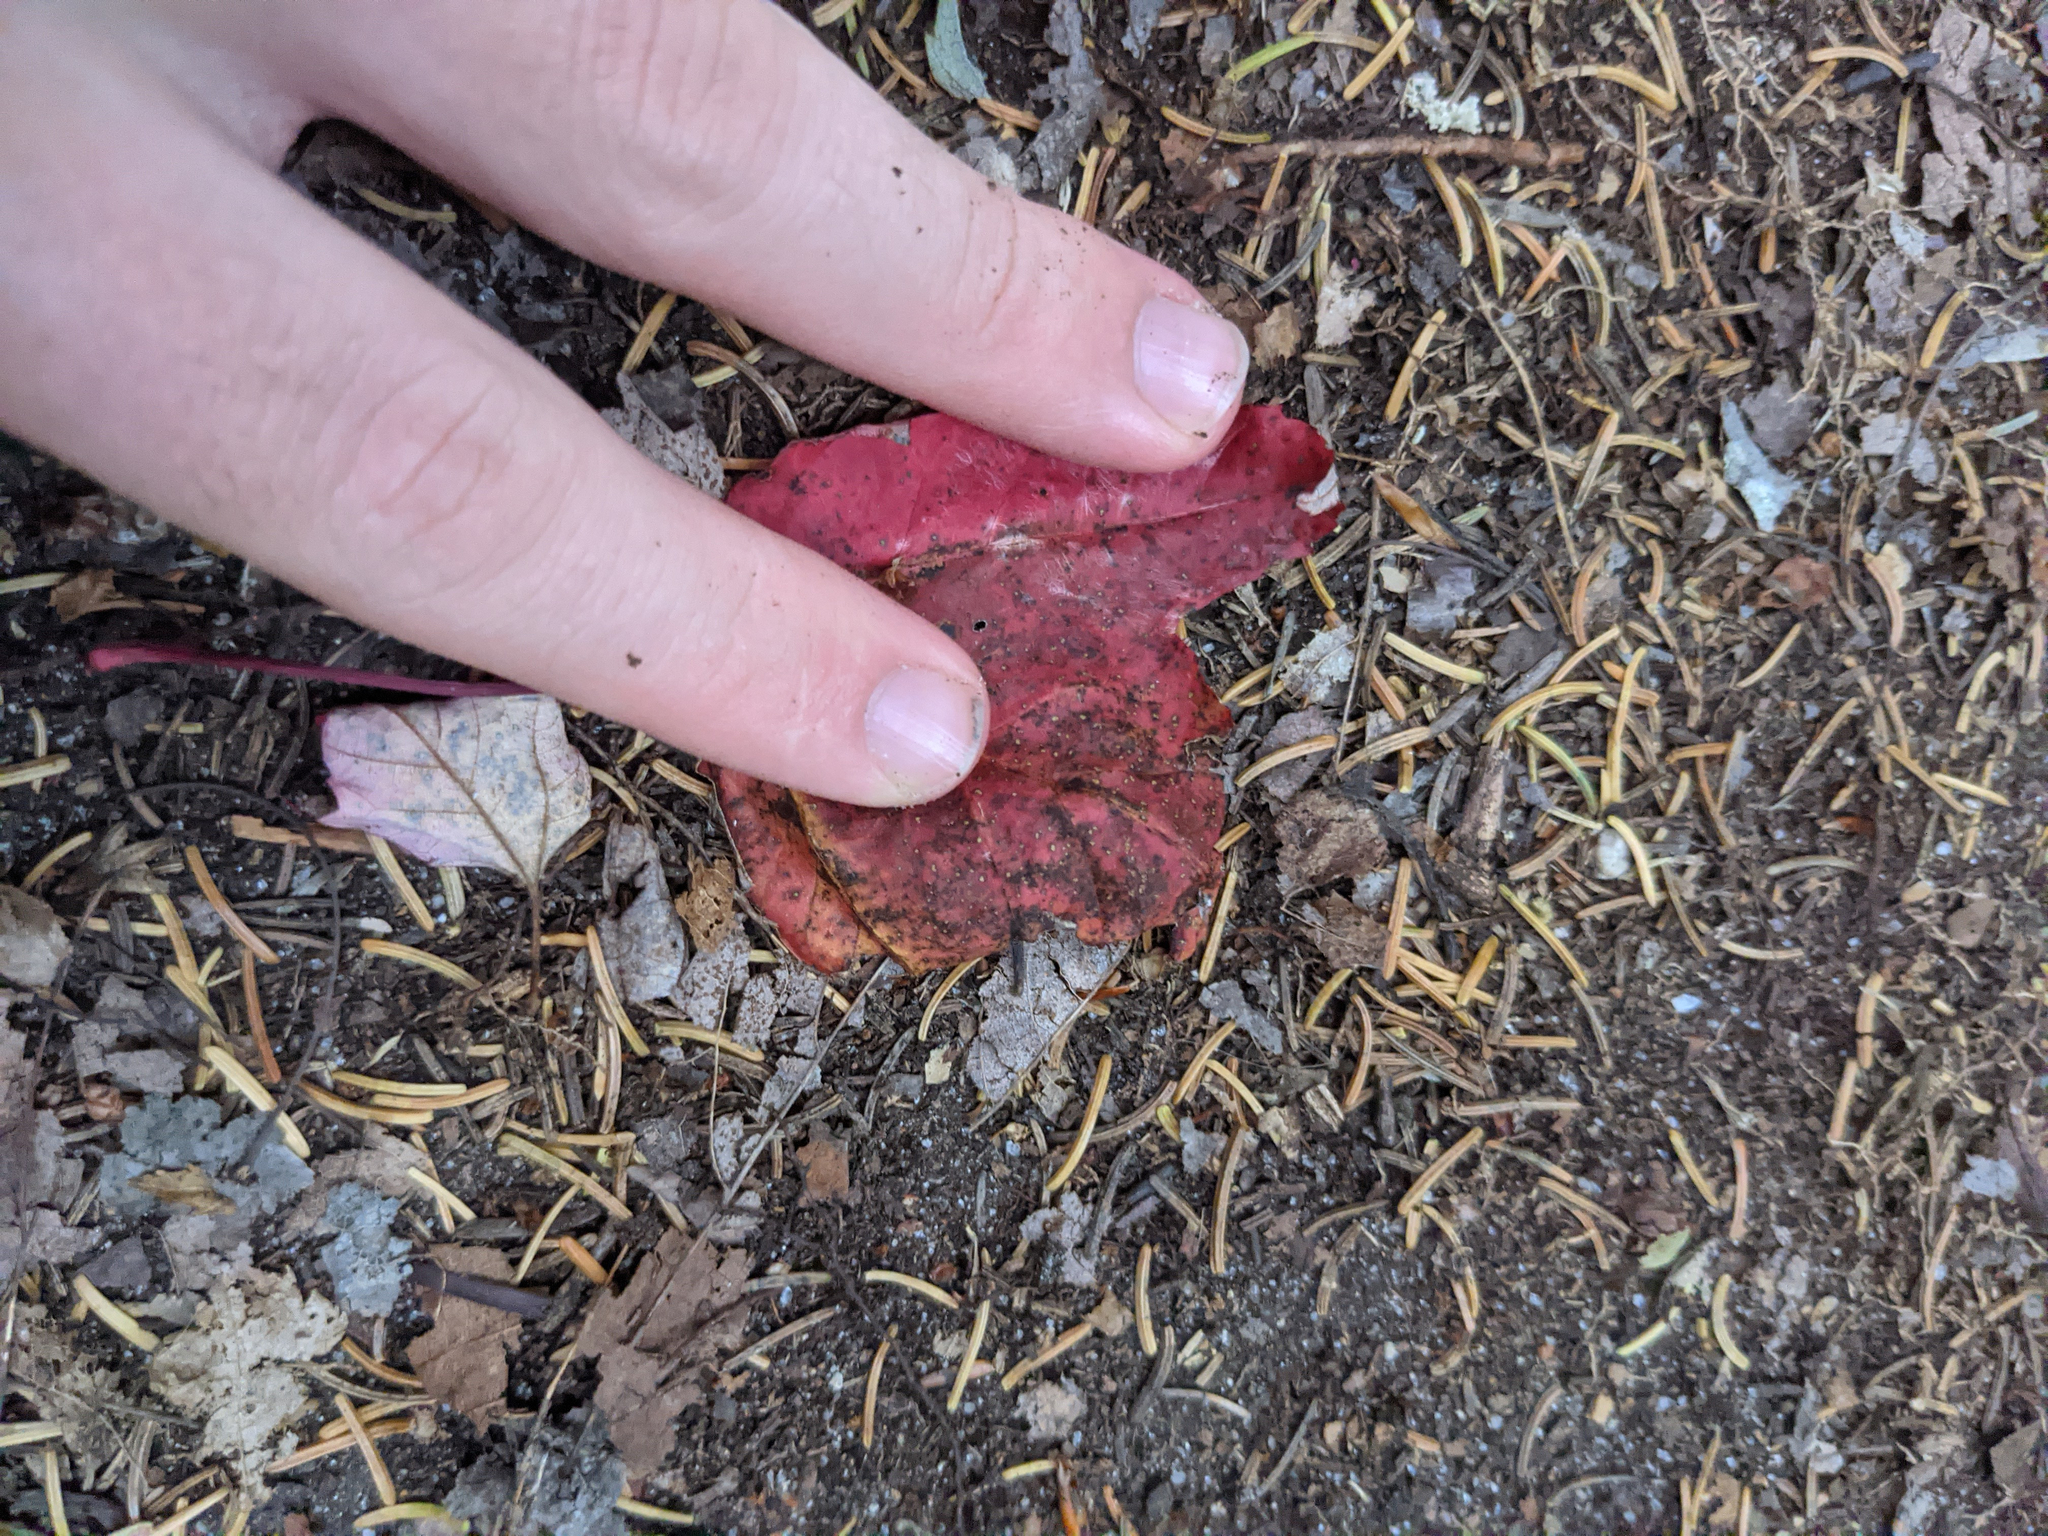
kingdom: Plantae
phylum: Tracheophyta
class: Magnoliopsida
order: Sapindales
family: Sapindaceae
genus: Acer
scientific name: Acer rubrum
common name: Red maple
